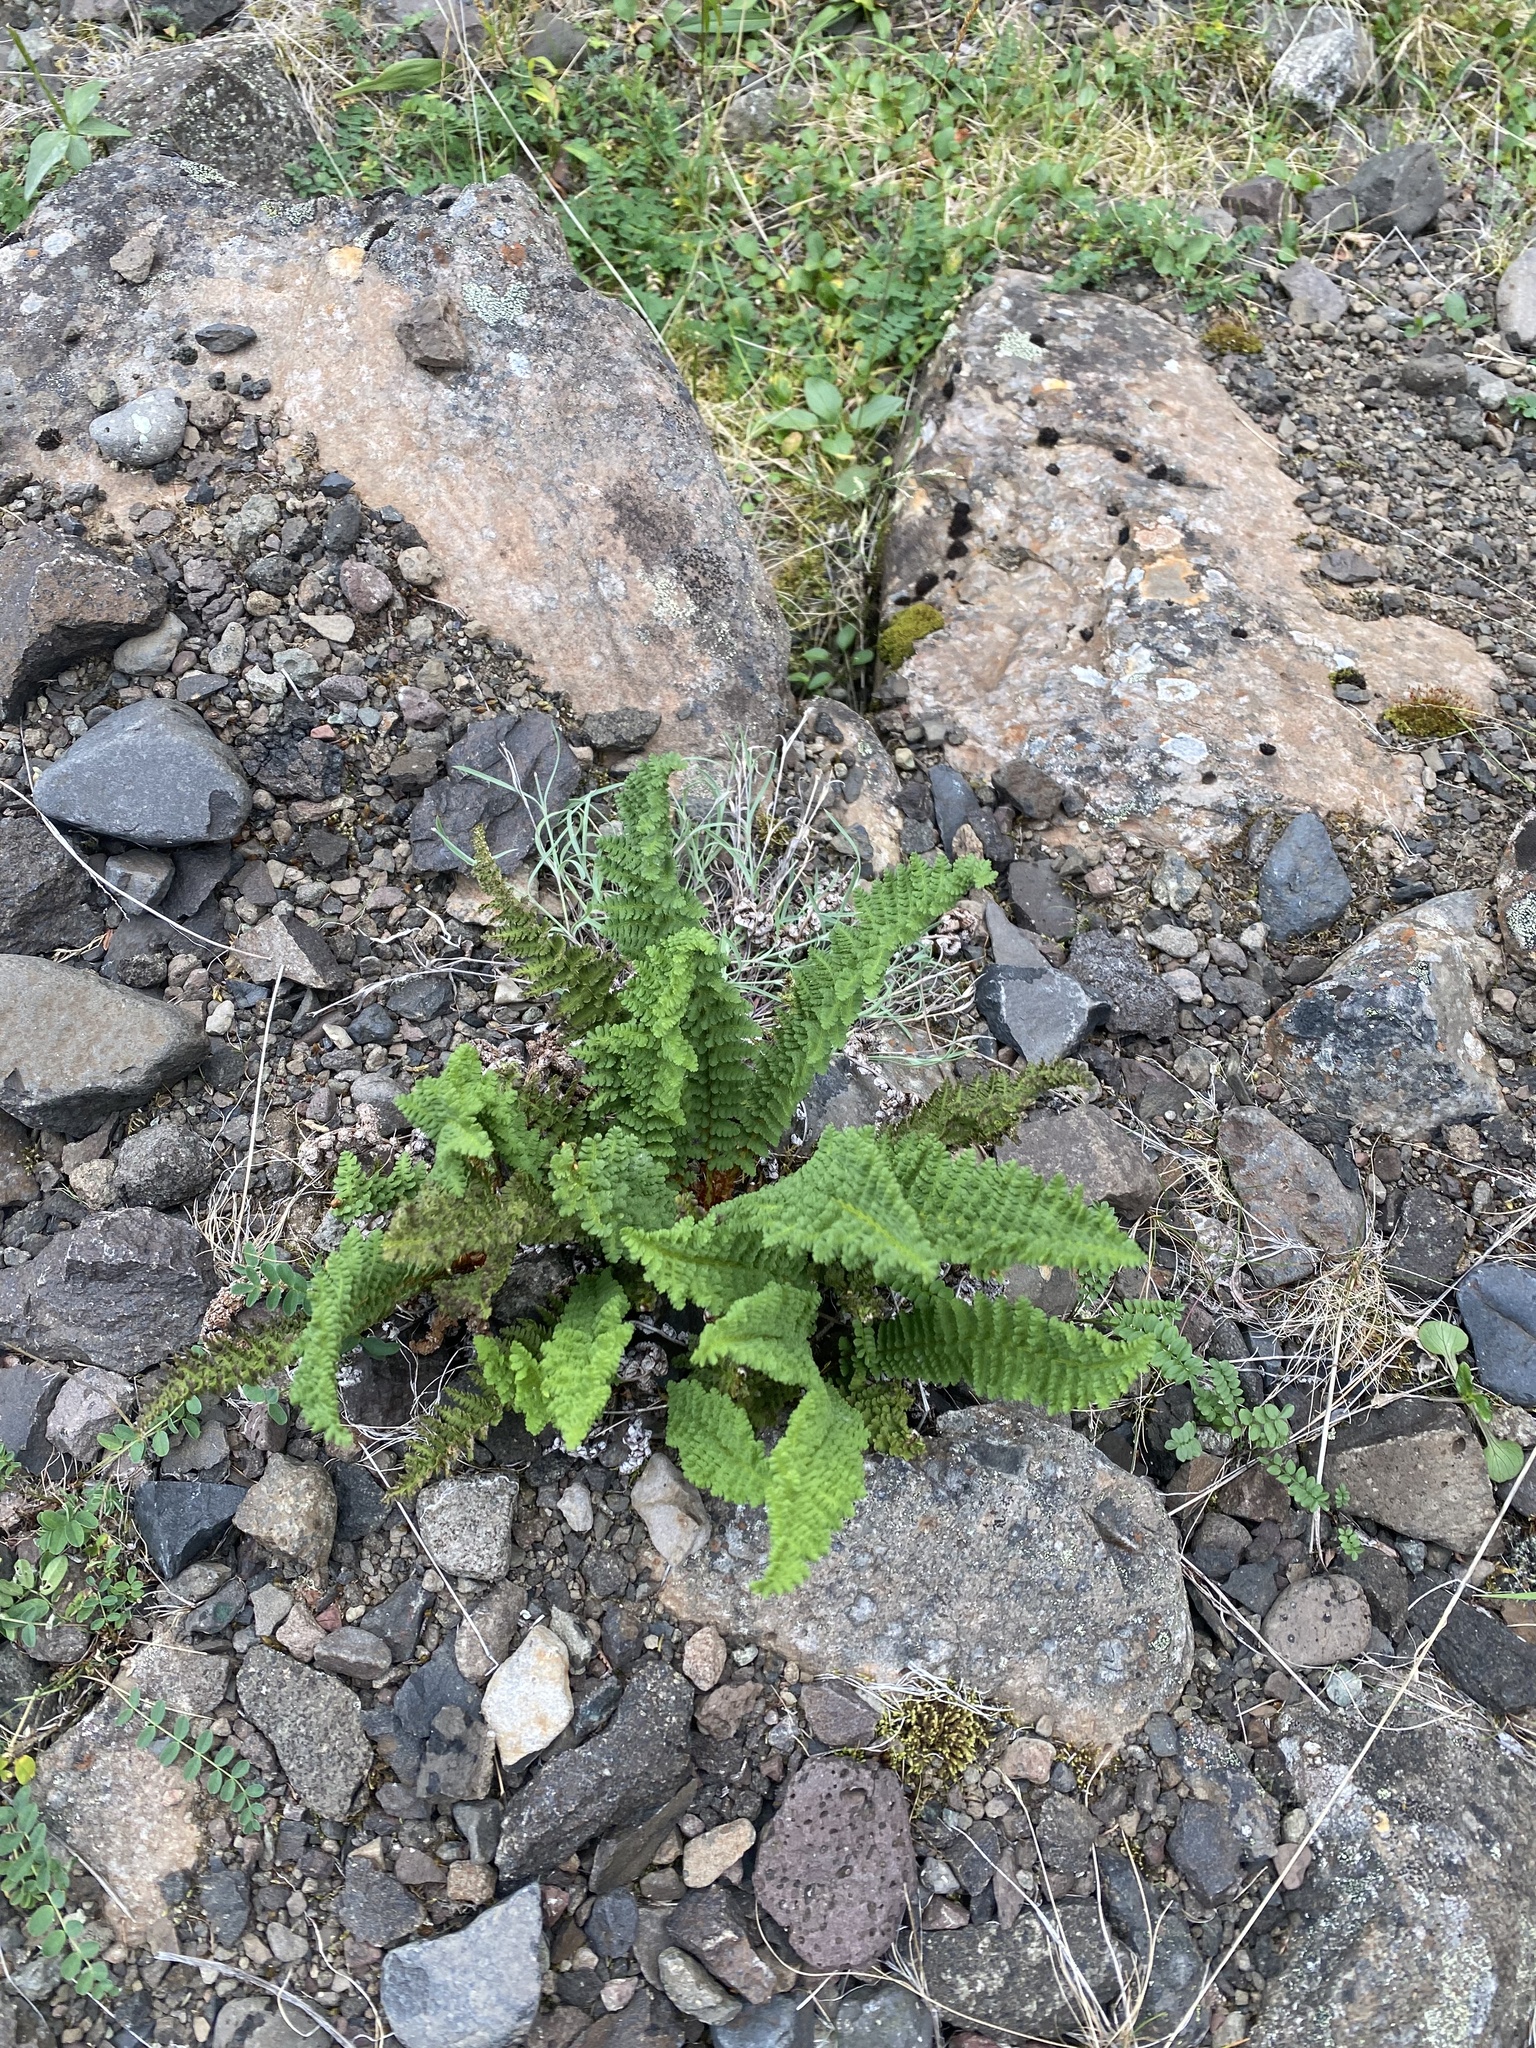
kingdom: Plantae
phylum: Tracheophyta
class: Polypodiopsida
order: Polypodiales
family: Dryopteridaceae
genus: Dryopteris
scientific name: Dryopteris fragrans
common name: Fragrant wood fern
